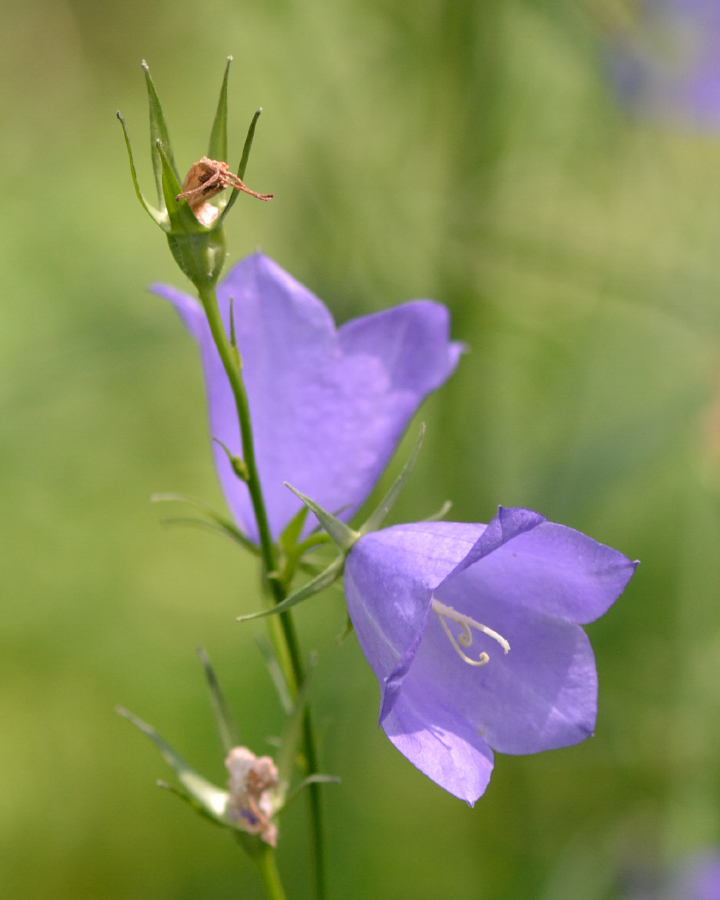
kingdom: Plantae
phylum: Tracheophyta
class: Magnoliopsida
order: Asterales
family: Campanulaceae
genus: Campanula
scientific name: Campanula persicifolia
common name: Peach-leaved bellflower
